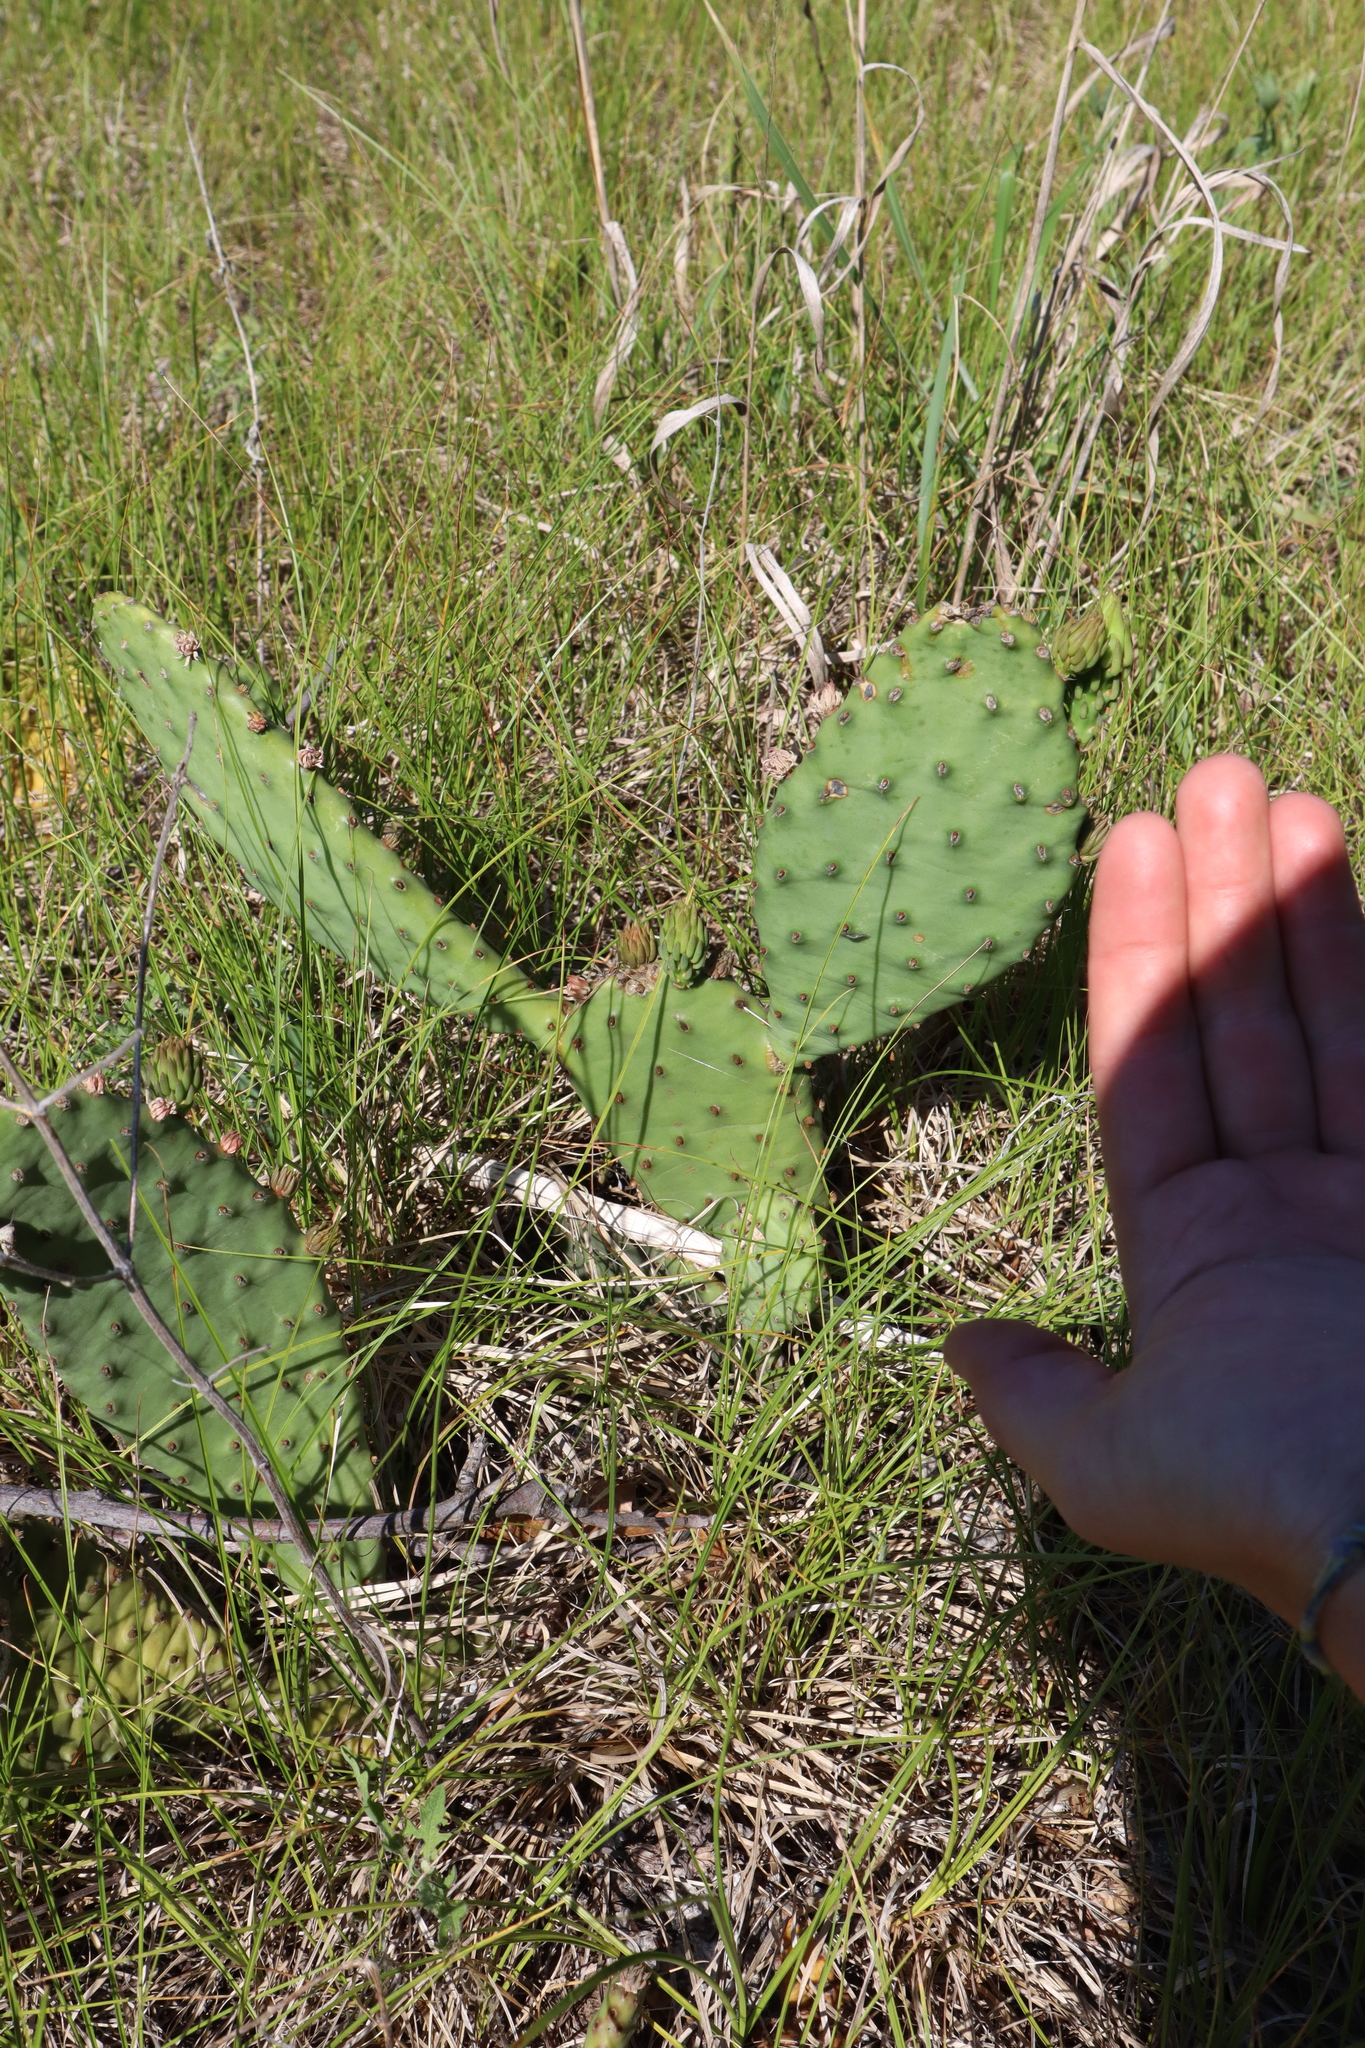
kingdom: Plantae
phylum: Tracheophyta
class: Magnoliopsida
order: Caryophyllales
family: Cactaceae
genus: Opuntia
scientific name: Opuntia humifusa
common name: Eastern prickly-pear
